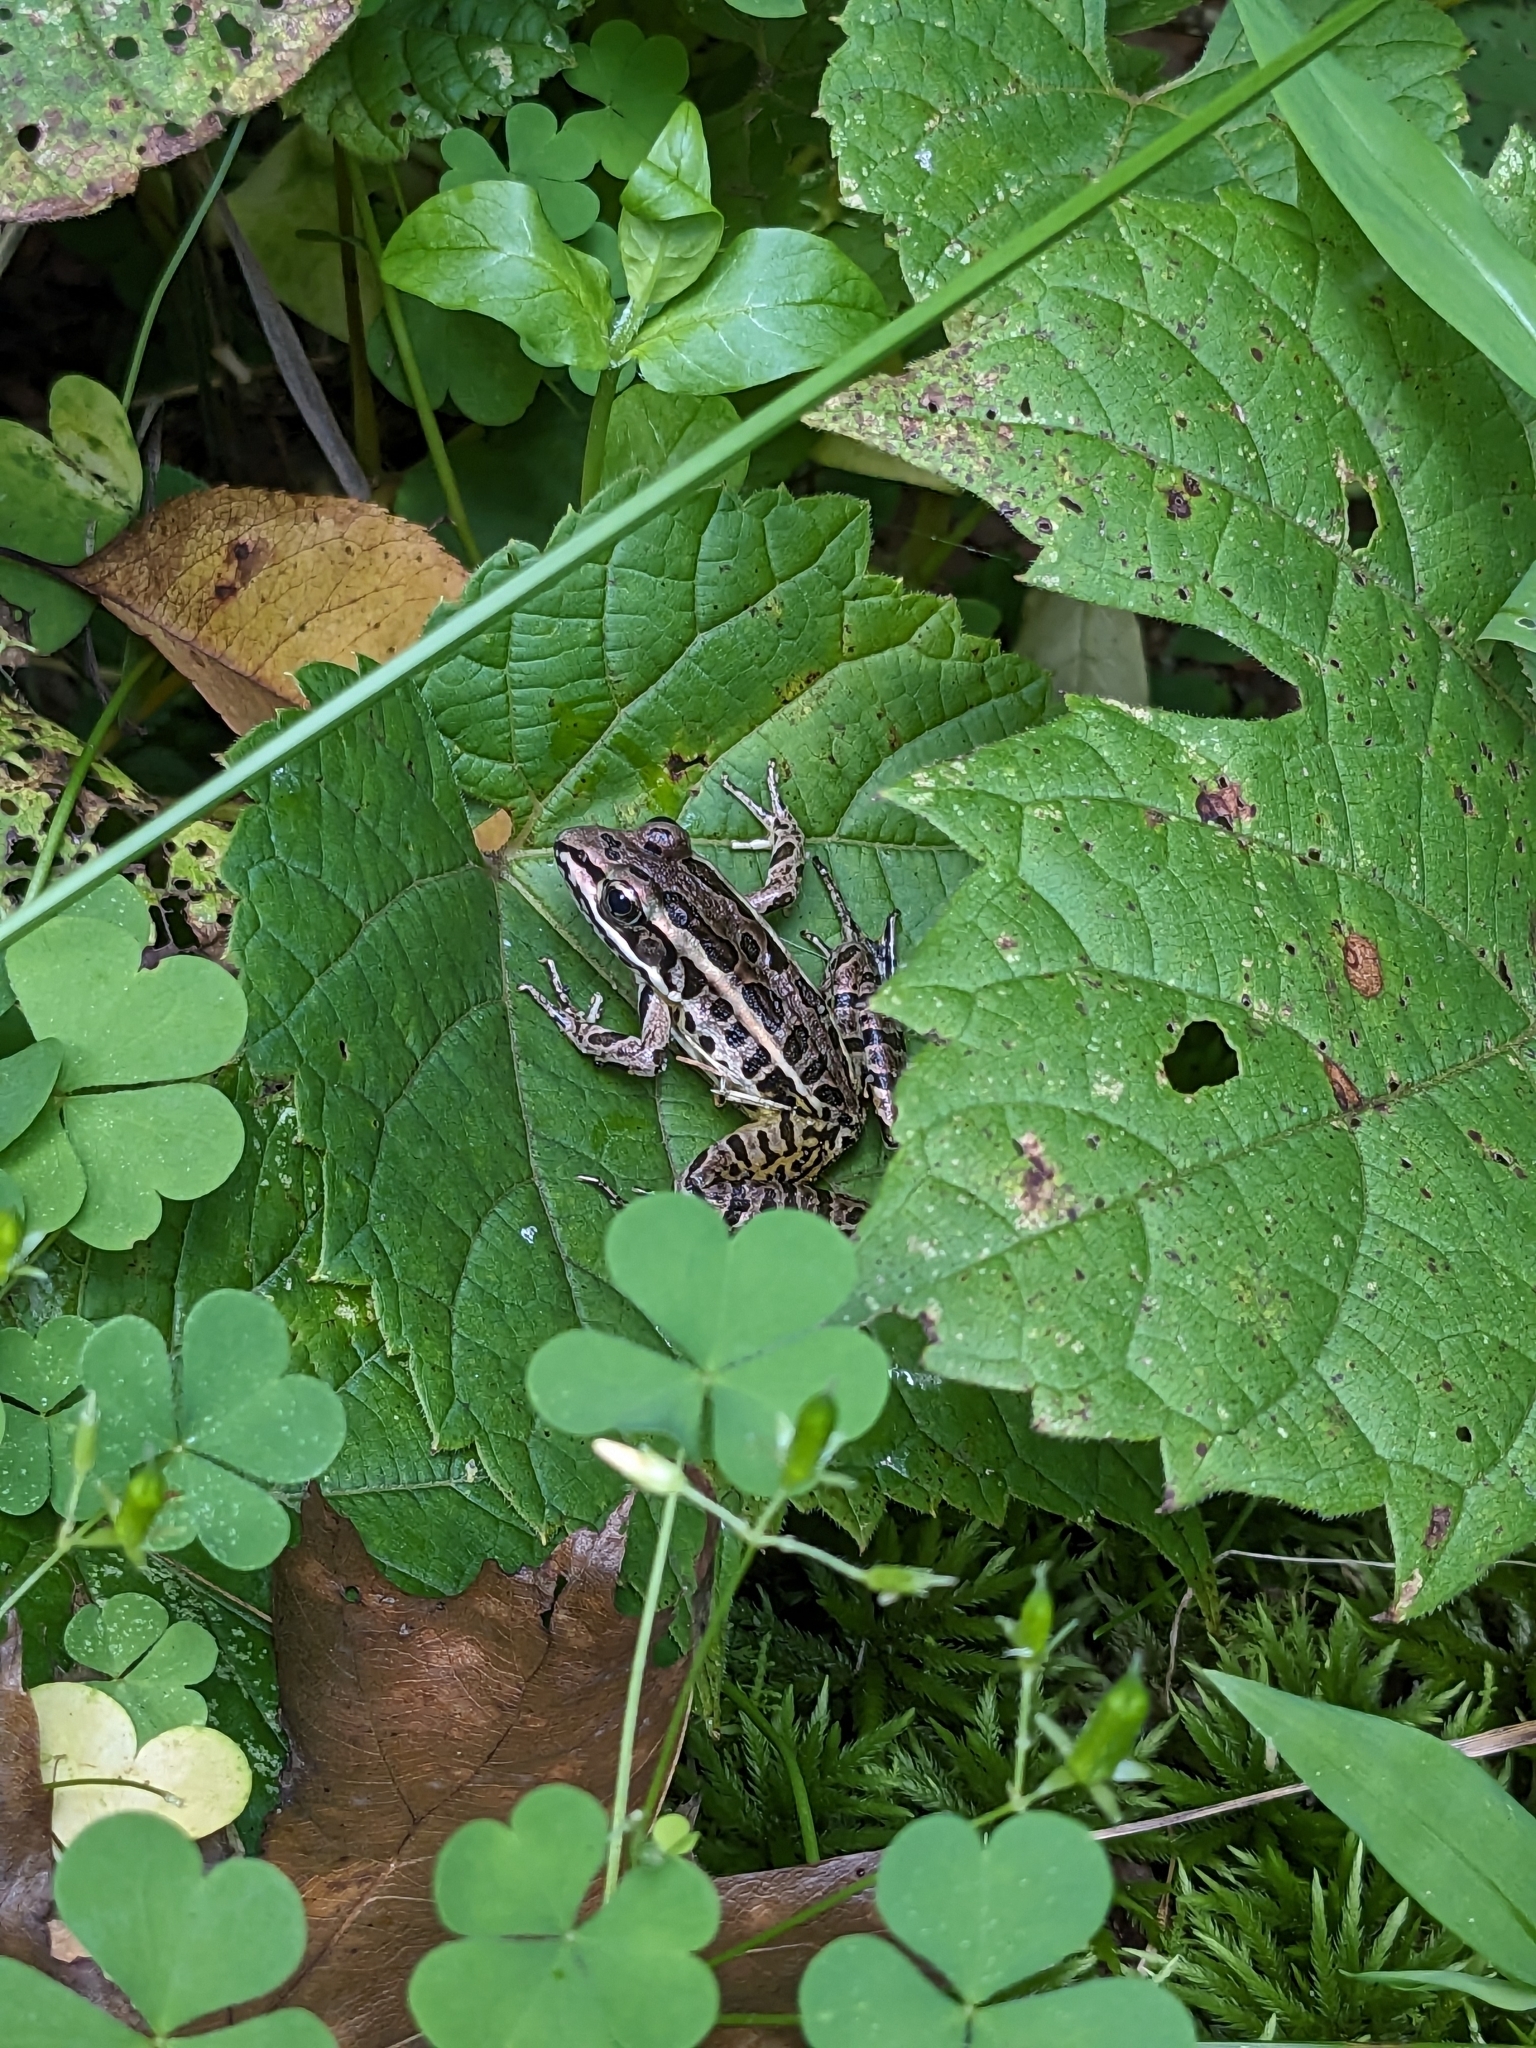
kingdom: Animalia
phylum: Chordata
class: Amphibia
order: Anura
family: Ranidae
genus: Lithobates
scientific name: Lithobates palustris
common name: Pickerel frog
